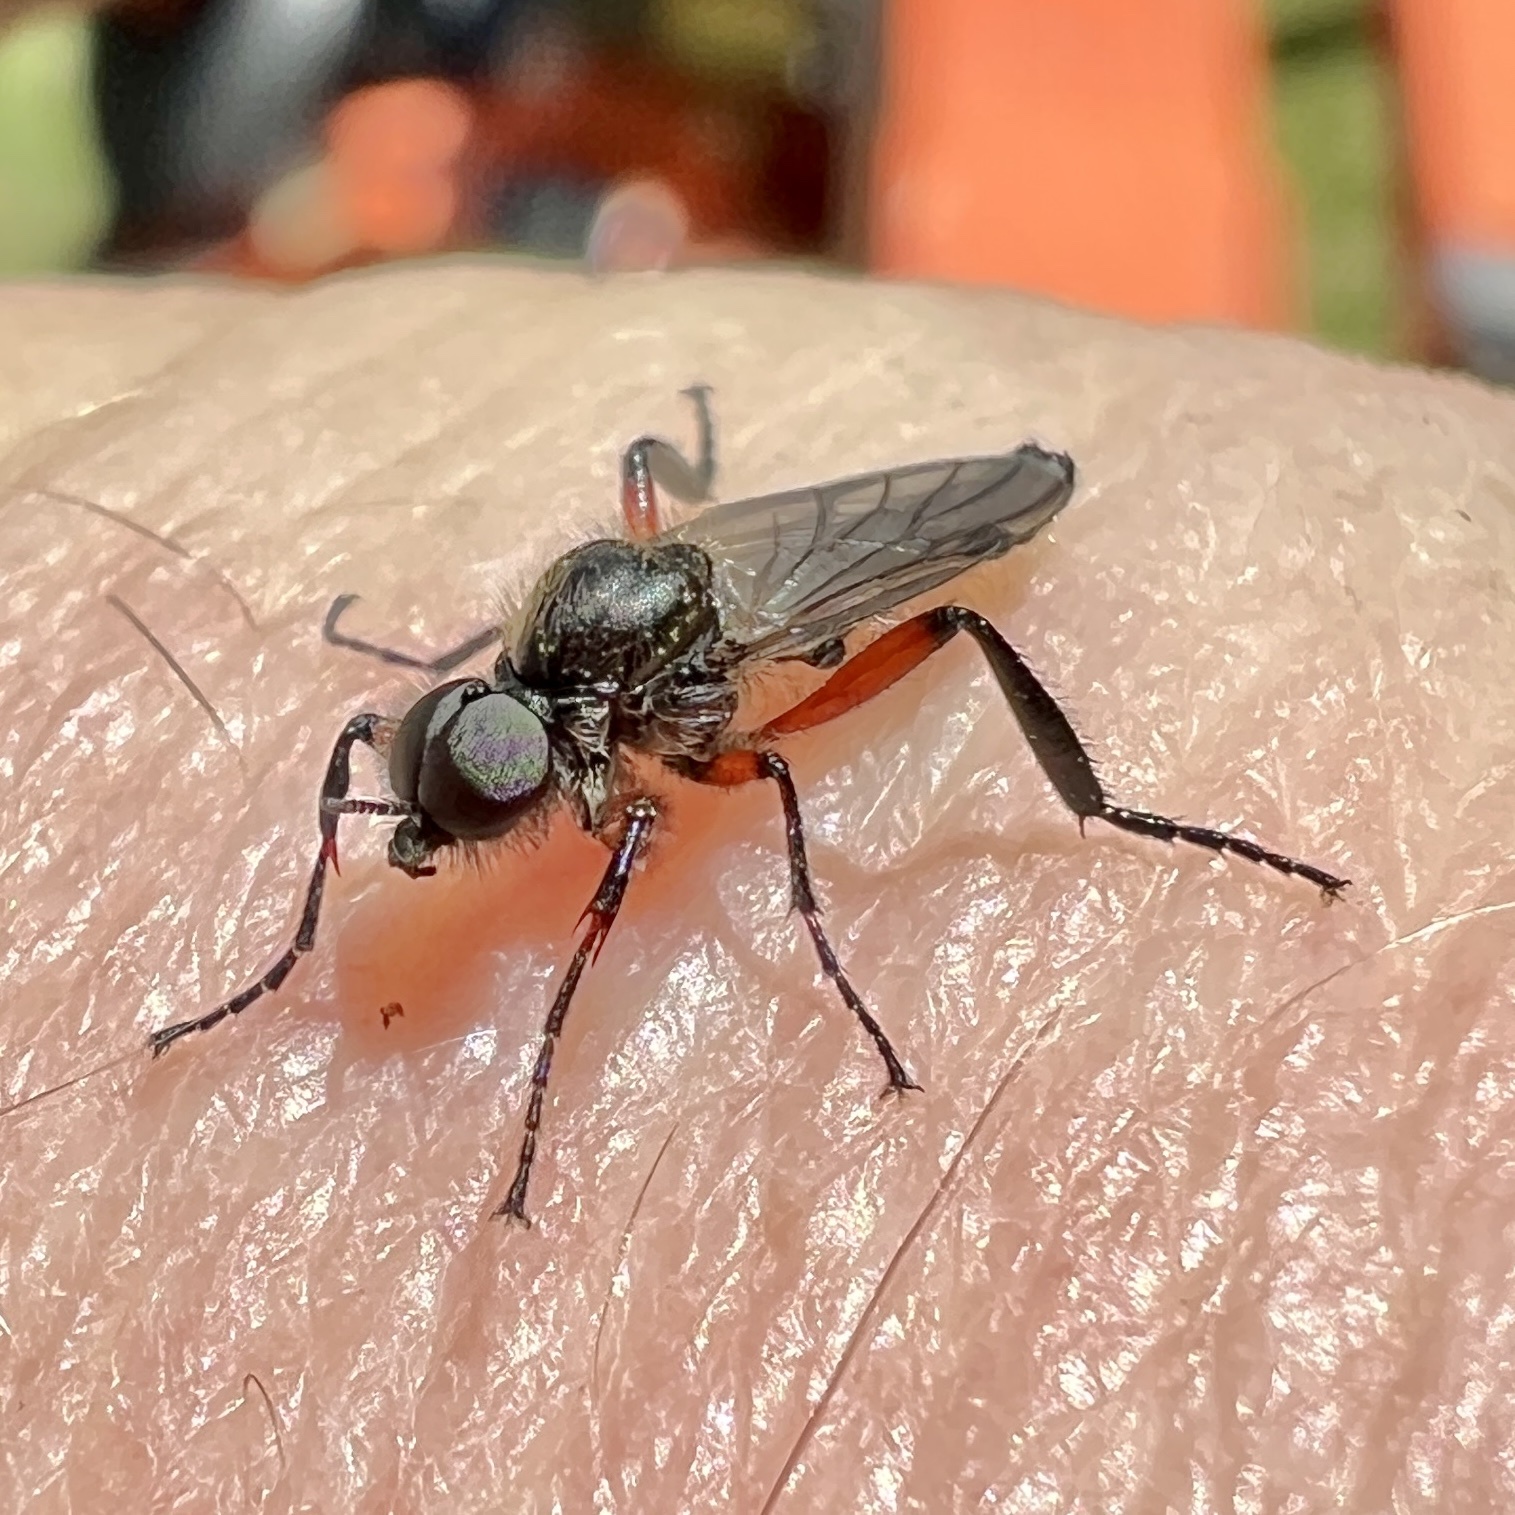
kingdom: Animalia
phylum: Arthropoda
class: Insecta
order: Diptera
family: Bibionidae
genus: Bibio
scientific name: Bibio femoratus
